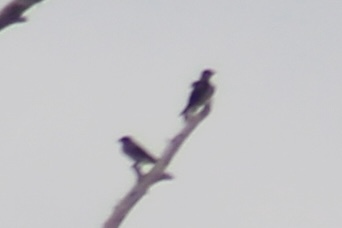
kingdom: Animalia
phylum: Chordata
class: Aves
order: Passeriformes
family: Hirundinidae
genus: Progne
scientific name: Progne subis
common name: Purple martin
